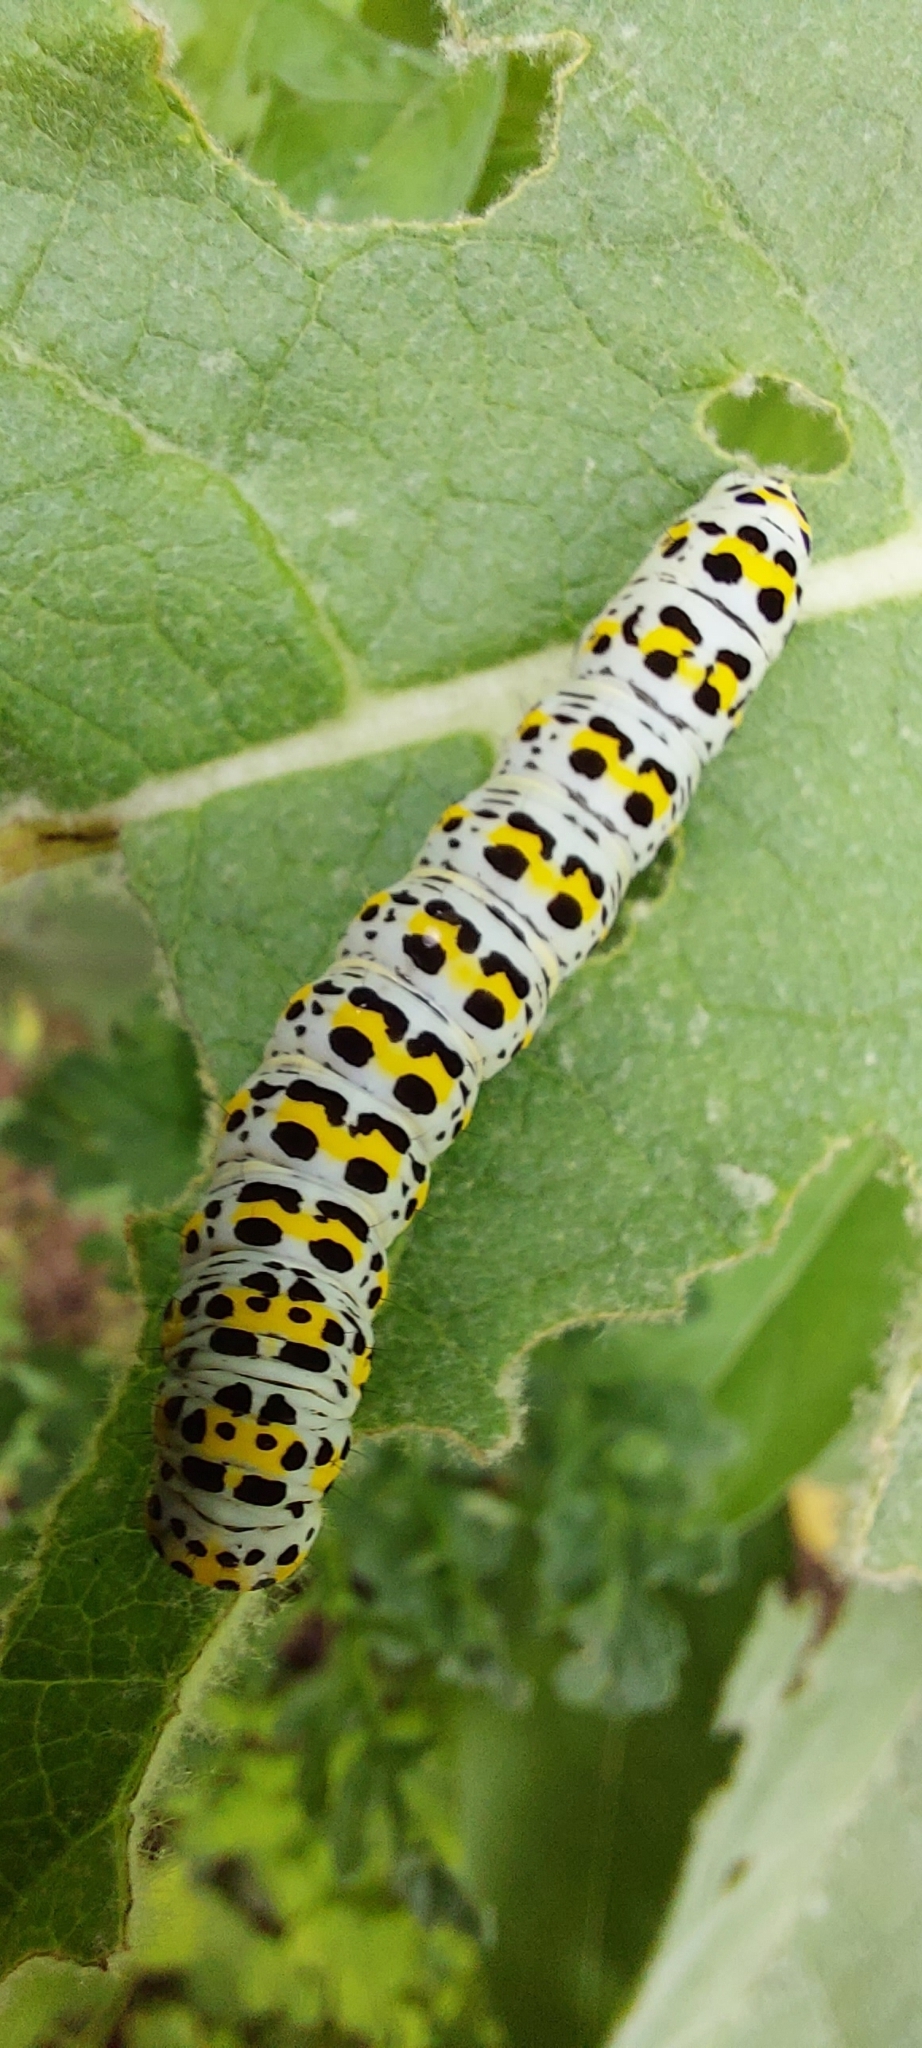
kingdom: Animalia
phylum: Arthropoda
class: Insecta
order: Lepidoptera
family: Noctuidae
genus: Cucullia
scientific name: Cucullia verbasci
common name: Mullein
